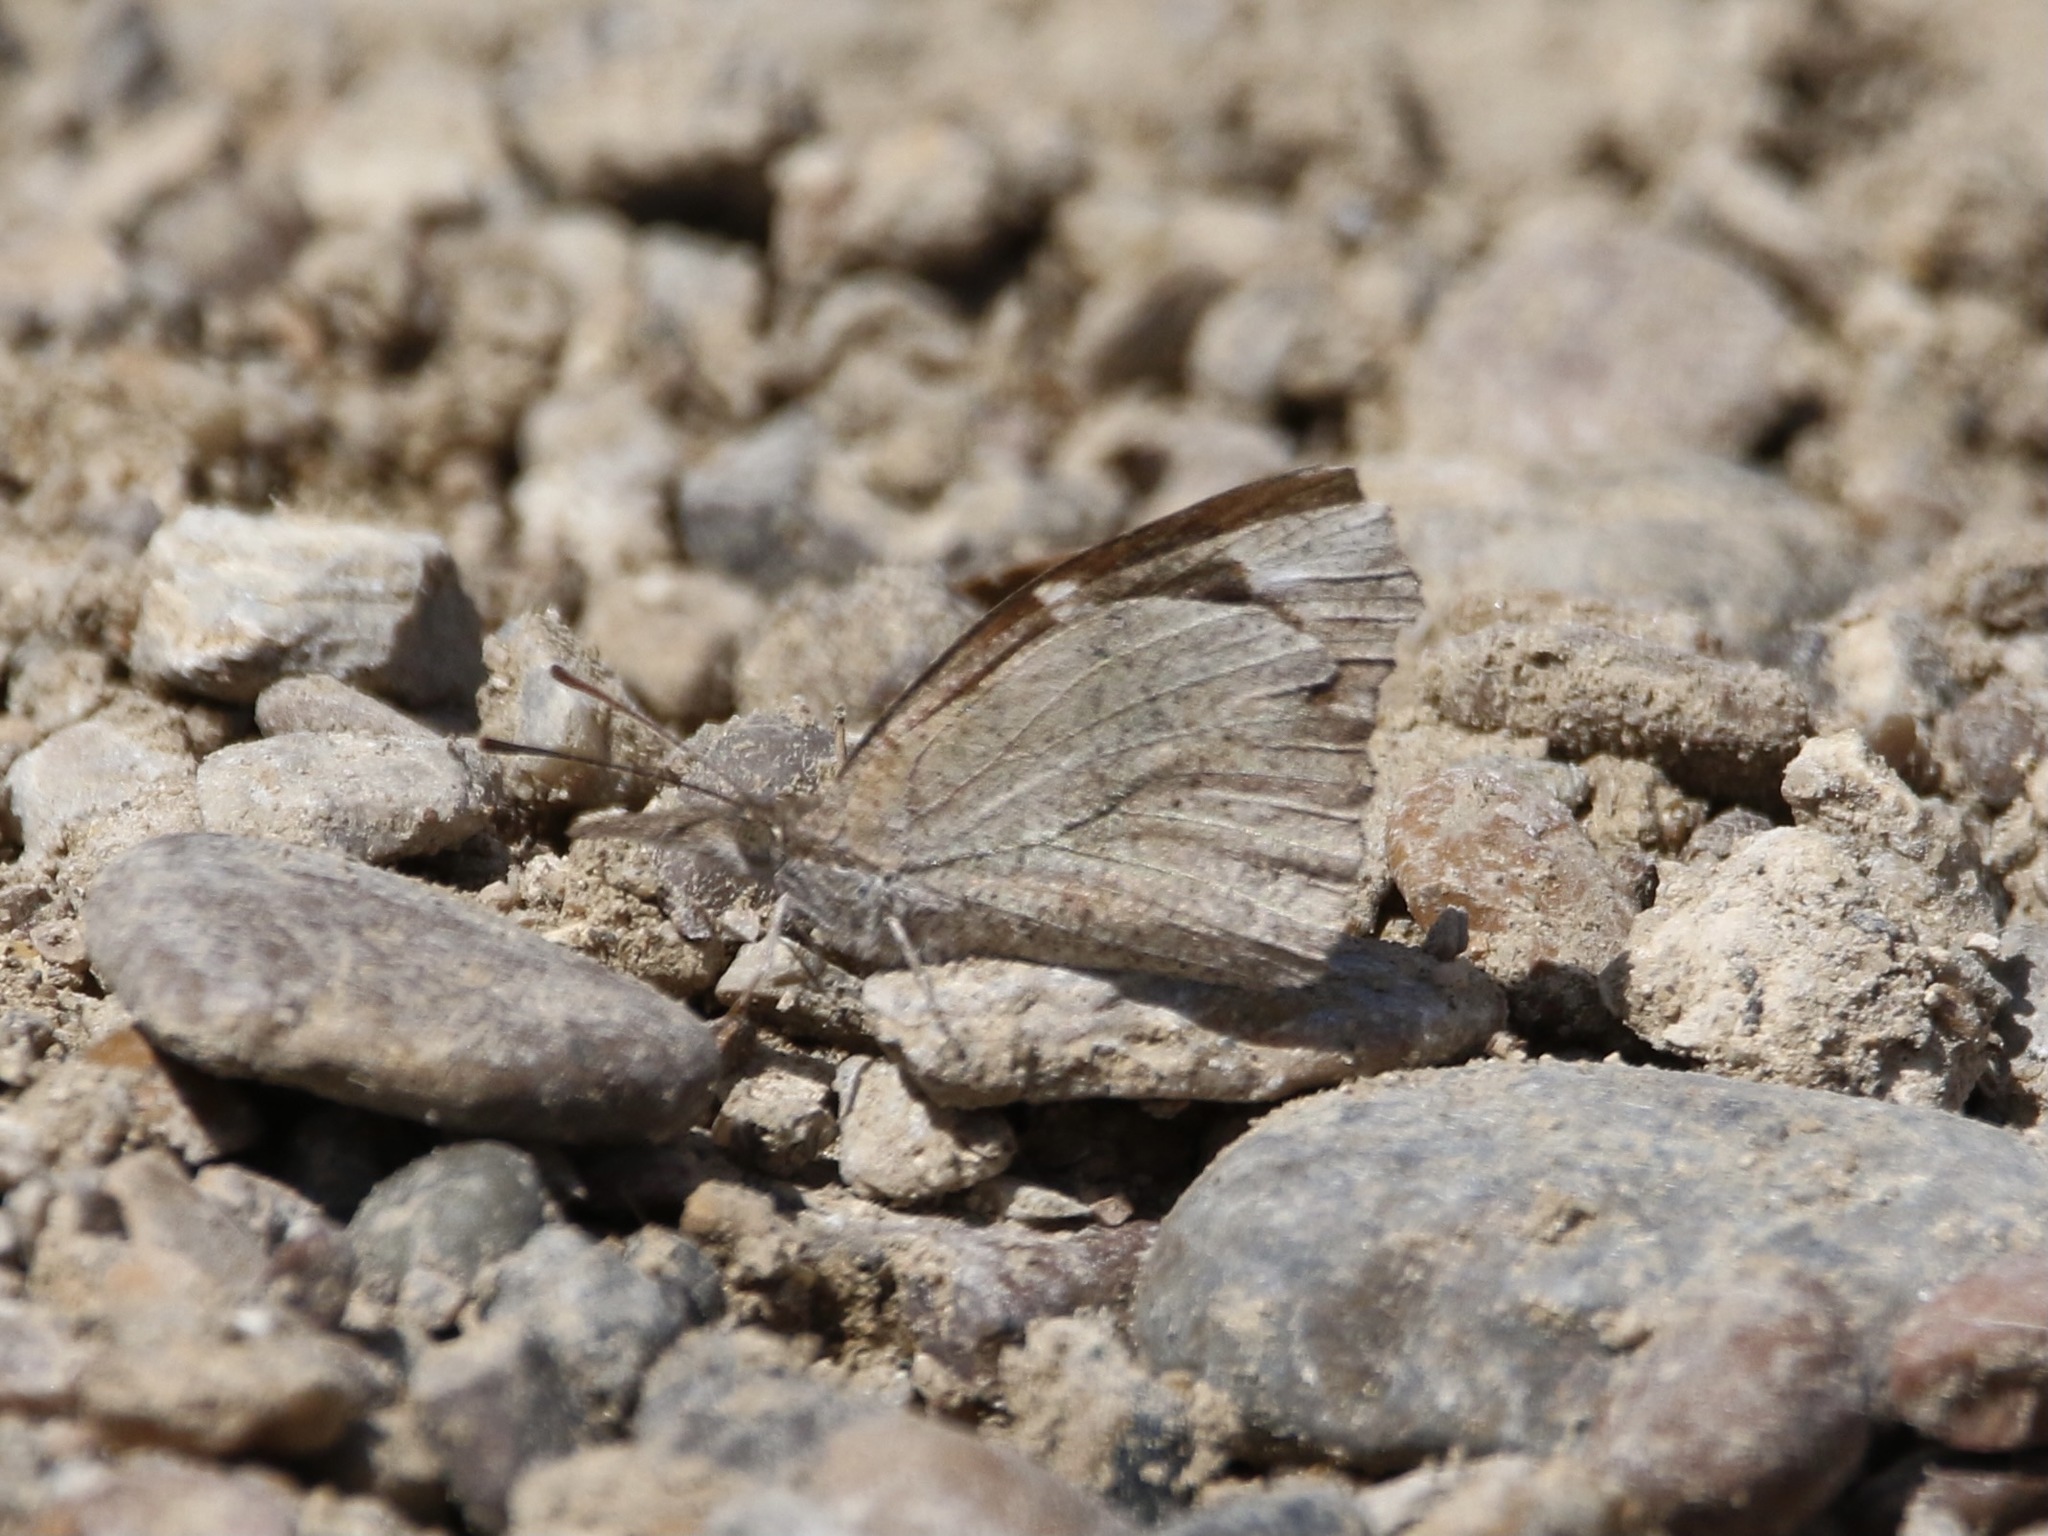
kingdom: Animalia
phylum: Arthropoda
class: Insecta
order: Lepidoptera
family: Nymphalidae
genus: Libytheana
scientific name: Libytheana carinenta
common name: American snout
